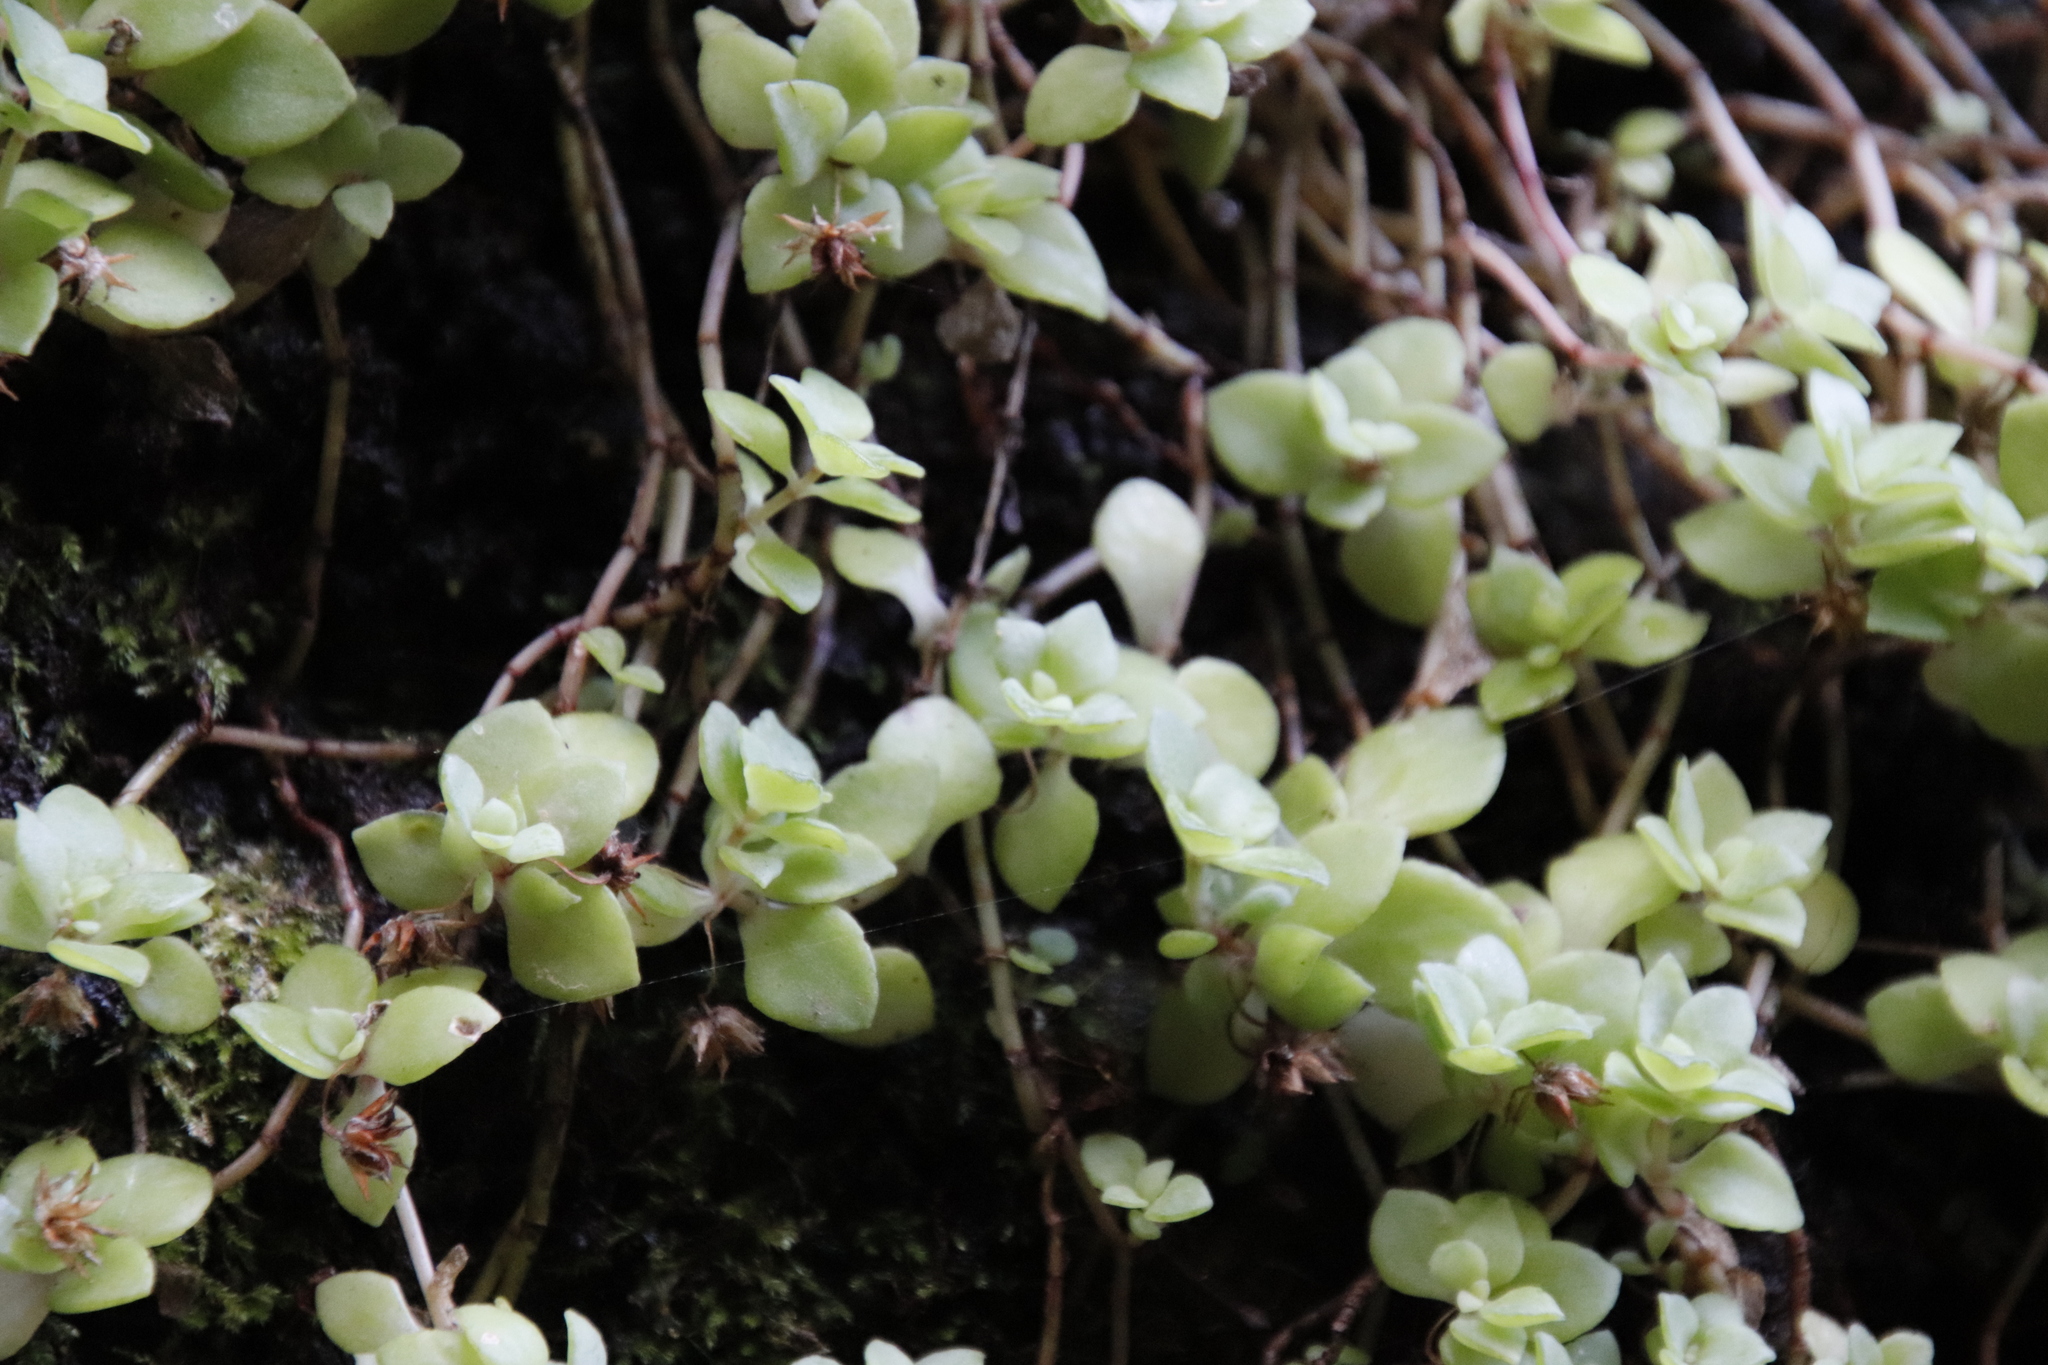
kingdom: Plantae
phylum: Tracheophyta
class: Magnoliopsida
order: Saxifragales
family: Crassulaceae
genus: Crassula
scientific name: Crassula pellucida
